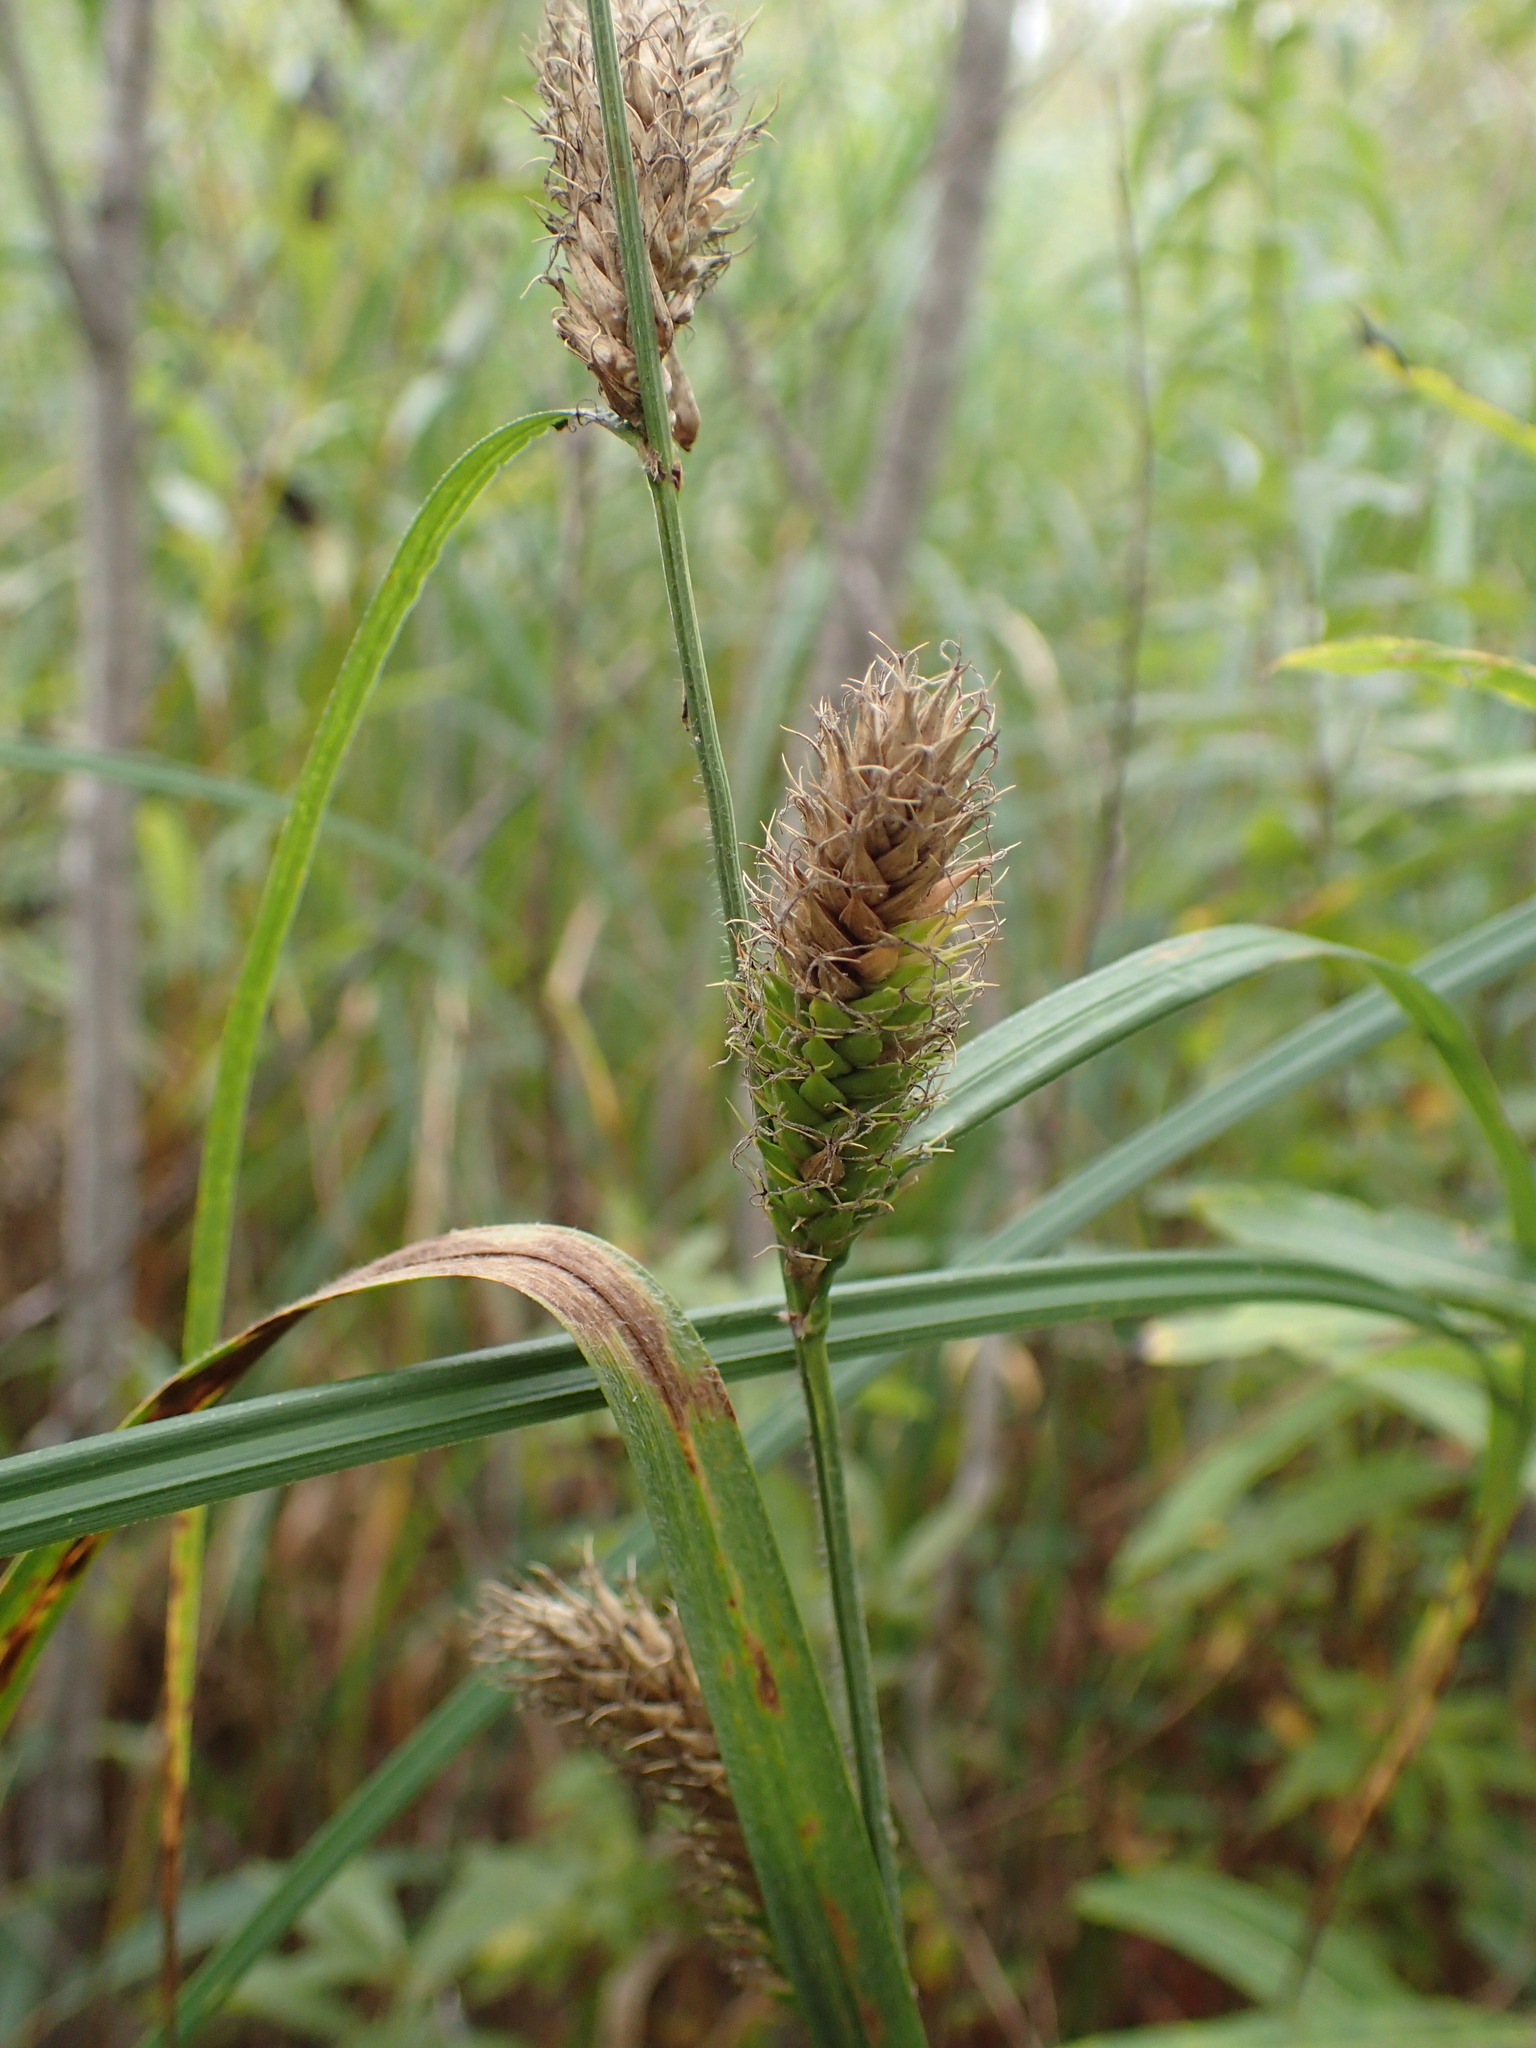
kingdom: Plantae
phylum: Tracheophyta
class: Liliopsida
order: Poales
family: Cyperaceae
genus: Carex
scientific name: Carex atherodes
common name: Wheat sedge
